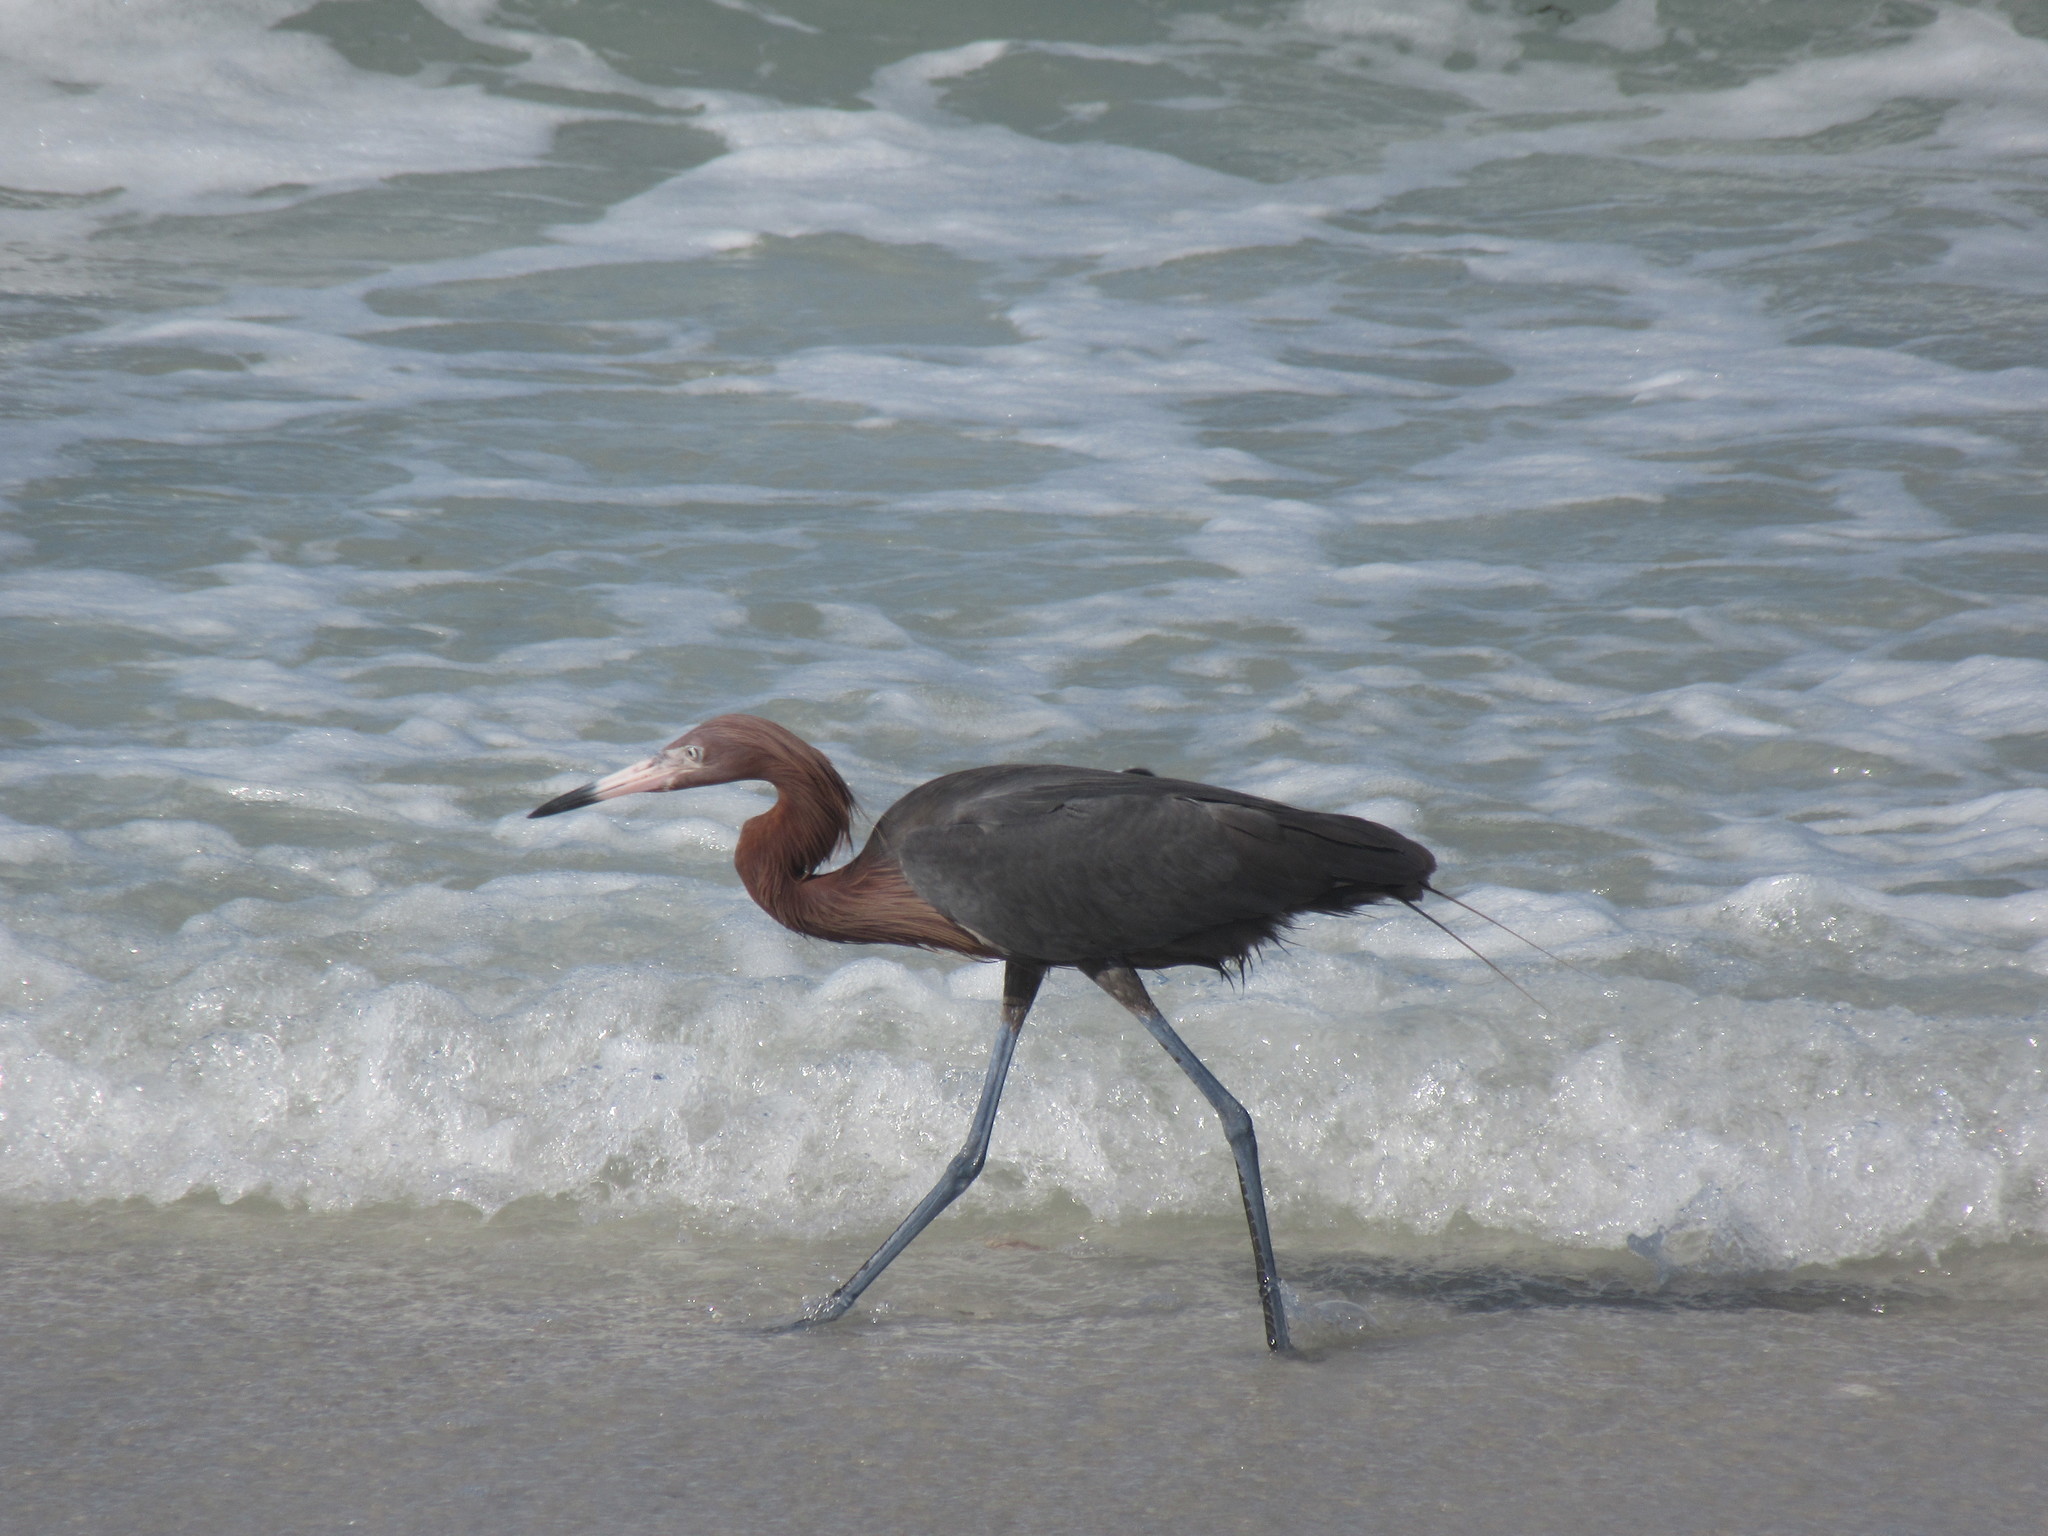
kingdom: Animalia
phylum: Chordata
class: Aves
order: Pelecaniformes
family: Ardeidae
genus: Egretta
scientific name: Egretta rufescens
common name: Reddish egret
